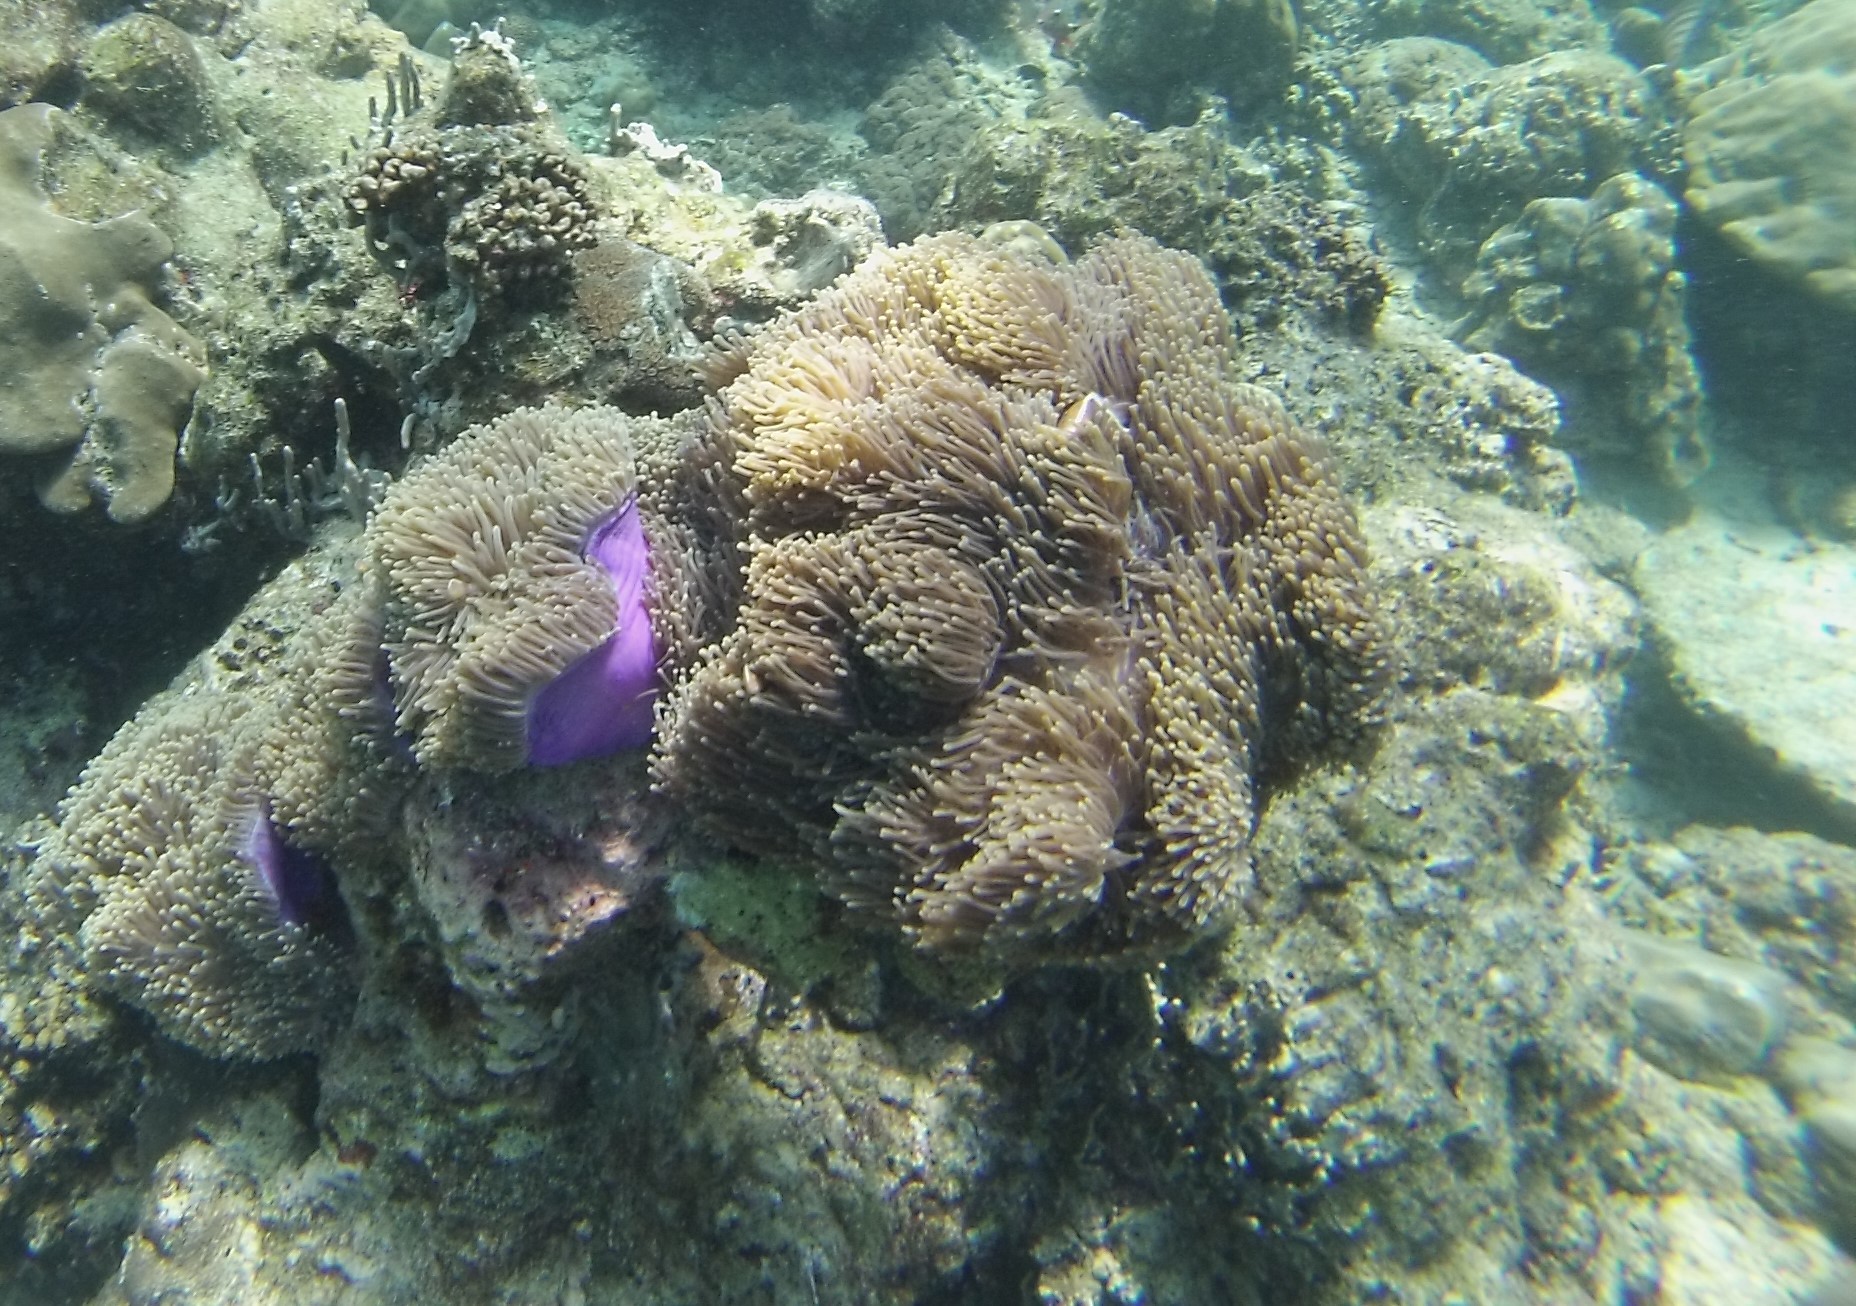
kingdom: Animalia
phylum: Cnidaria
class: Anthozoa
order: Actiniaria
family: Stichodactylidae
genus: Radianthus
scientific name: Radianthus magnifica
